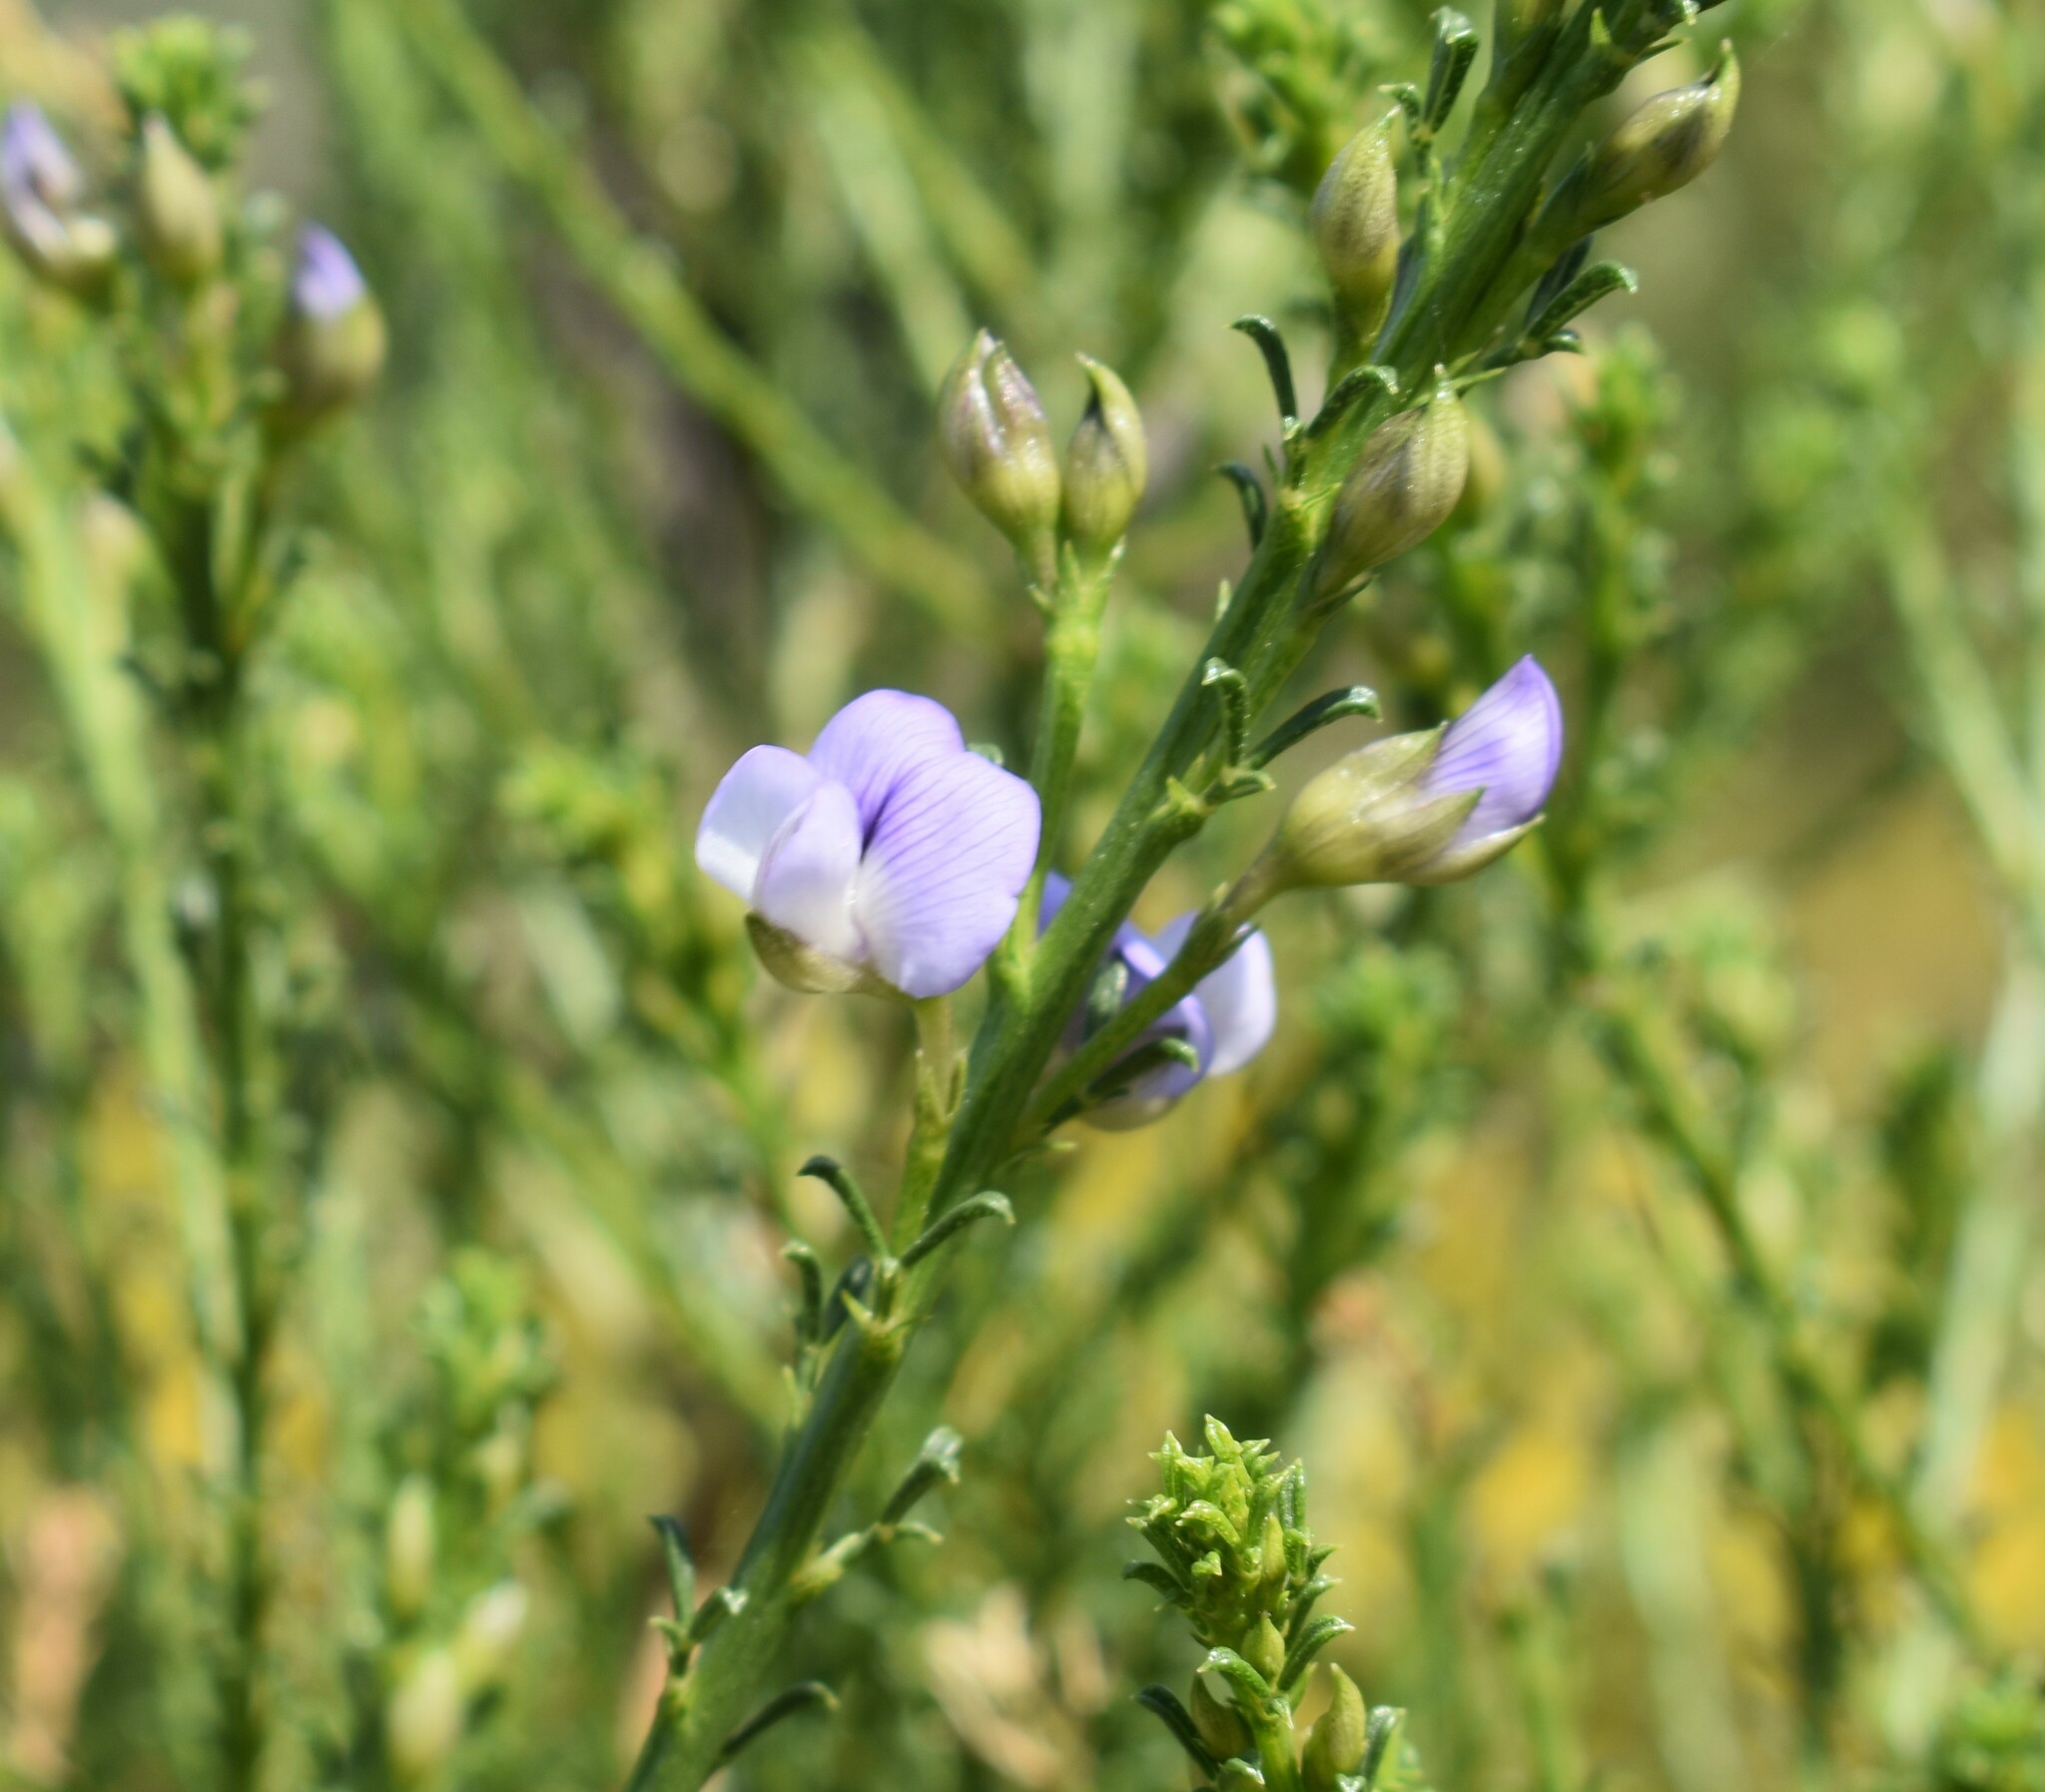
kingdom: Plantae
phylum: Tracheophyta
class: Magnoliopsida
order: Fabales
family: Fabaceae
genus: Psoralea
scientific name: Psoralea aculeata
